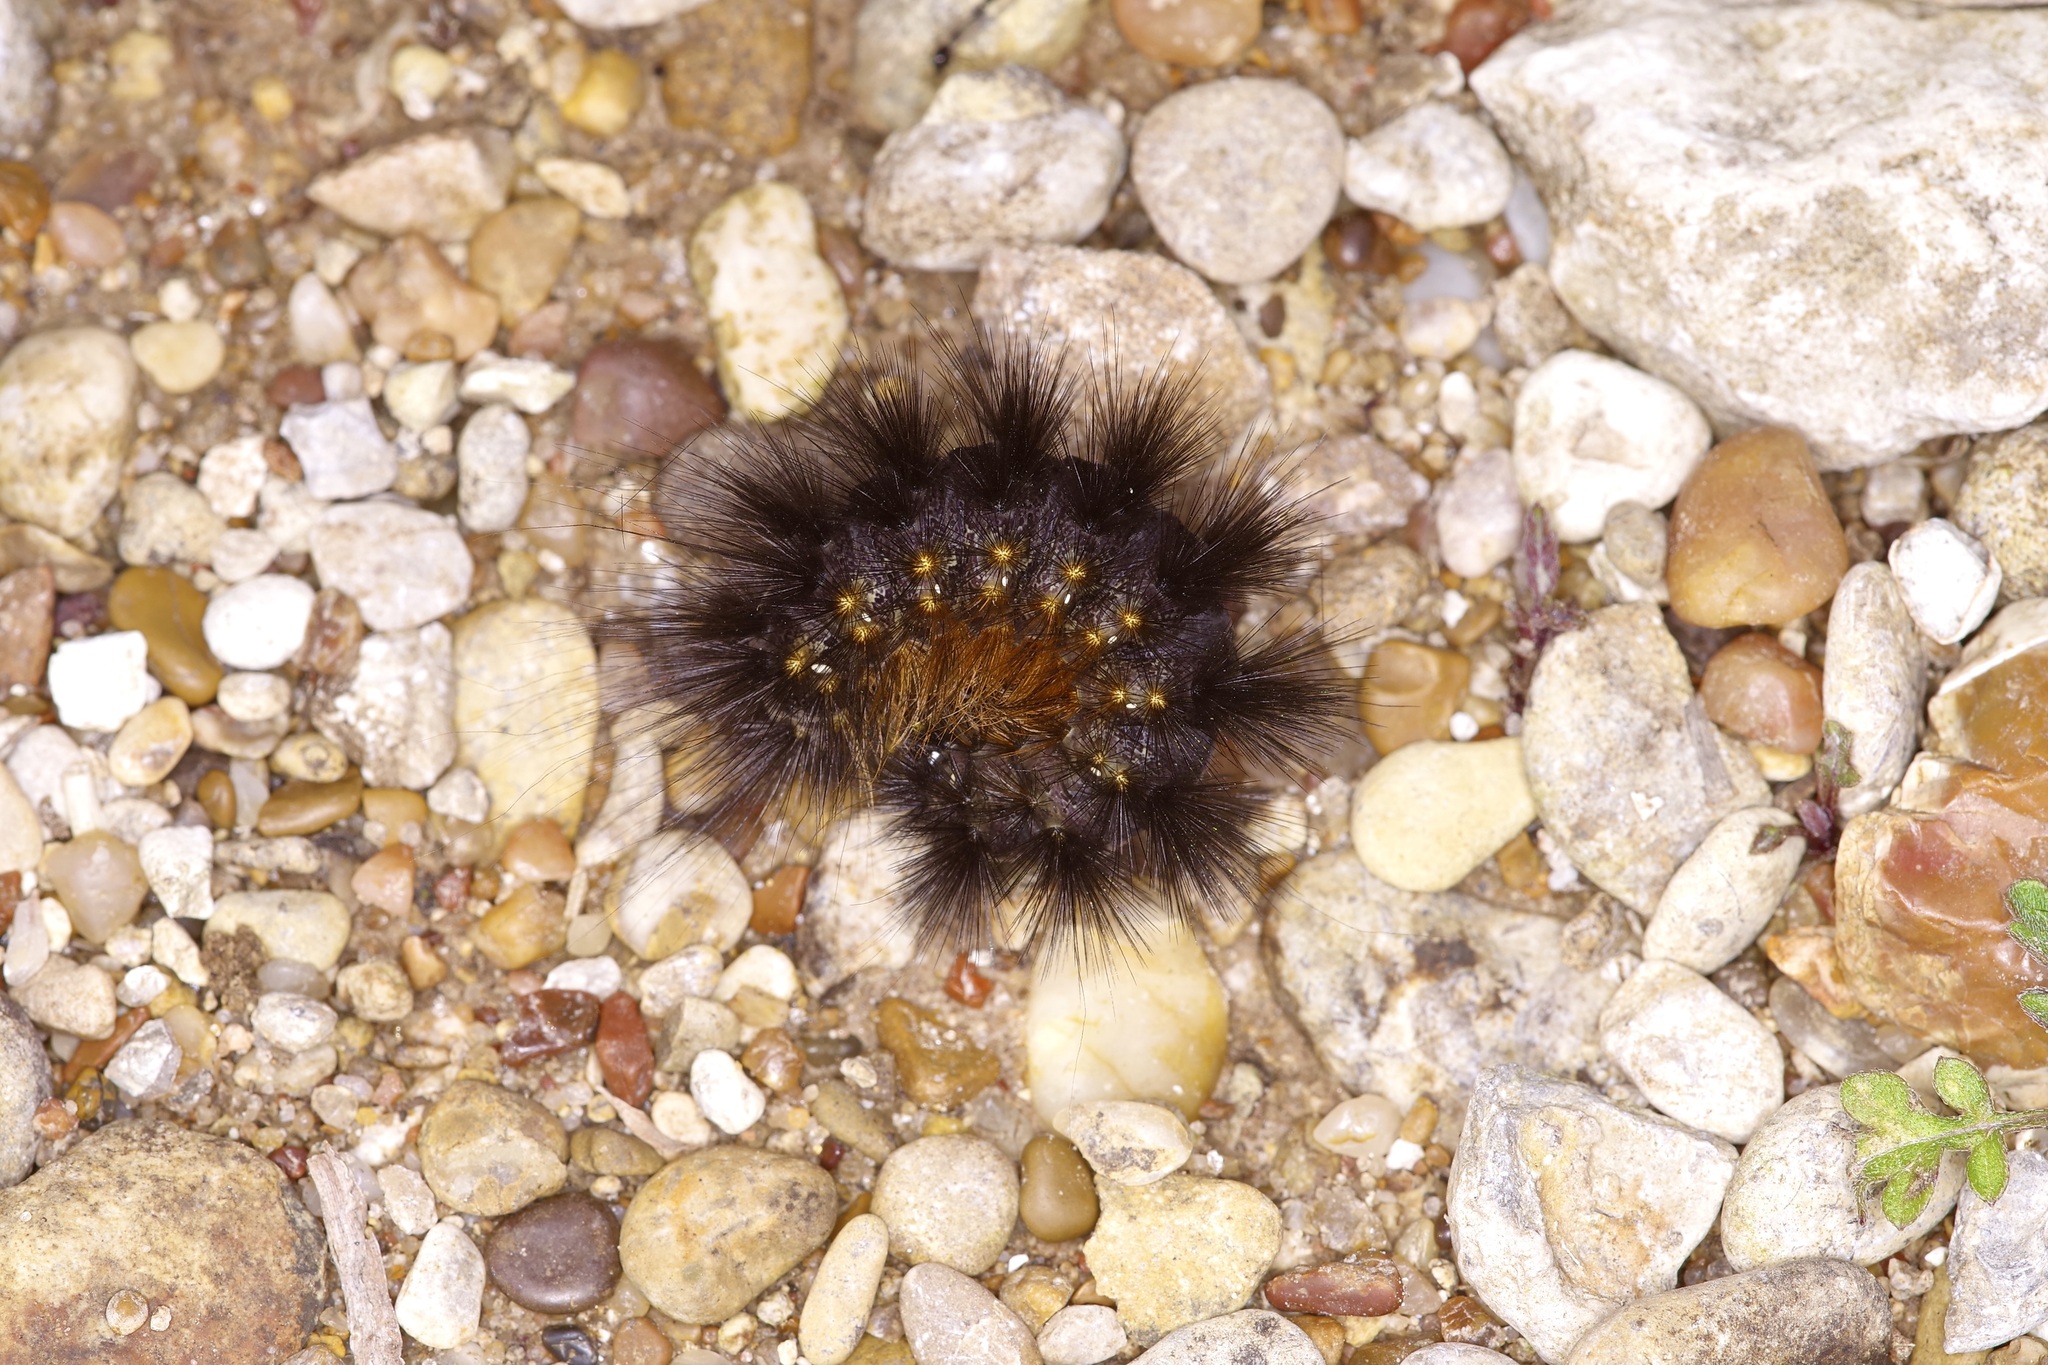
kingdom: Animalia
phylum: Arthropoda
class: Insecta
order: Lepidoptera
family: Erebidae
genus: Estigmene
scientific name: Estigmene acrea
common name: Salt marsh moth
